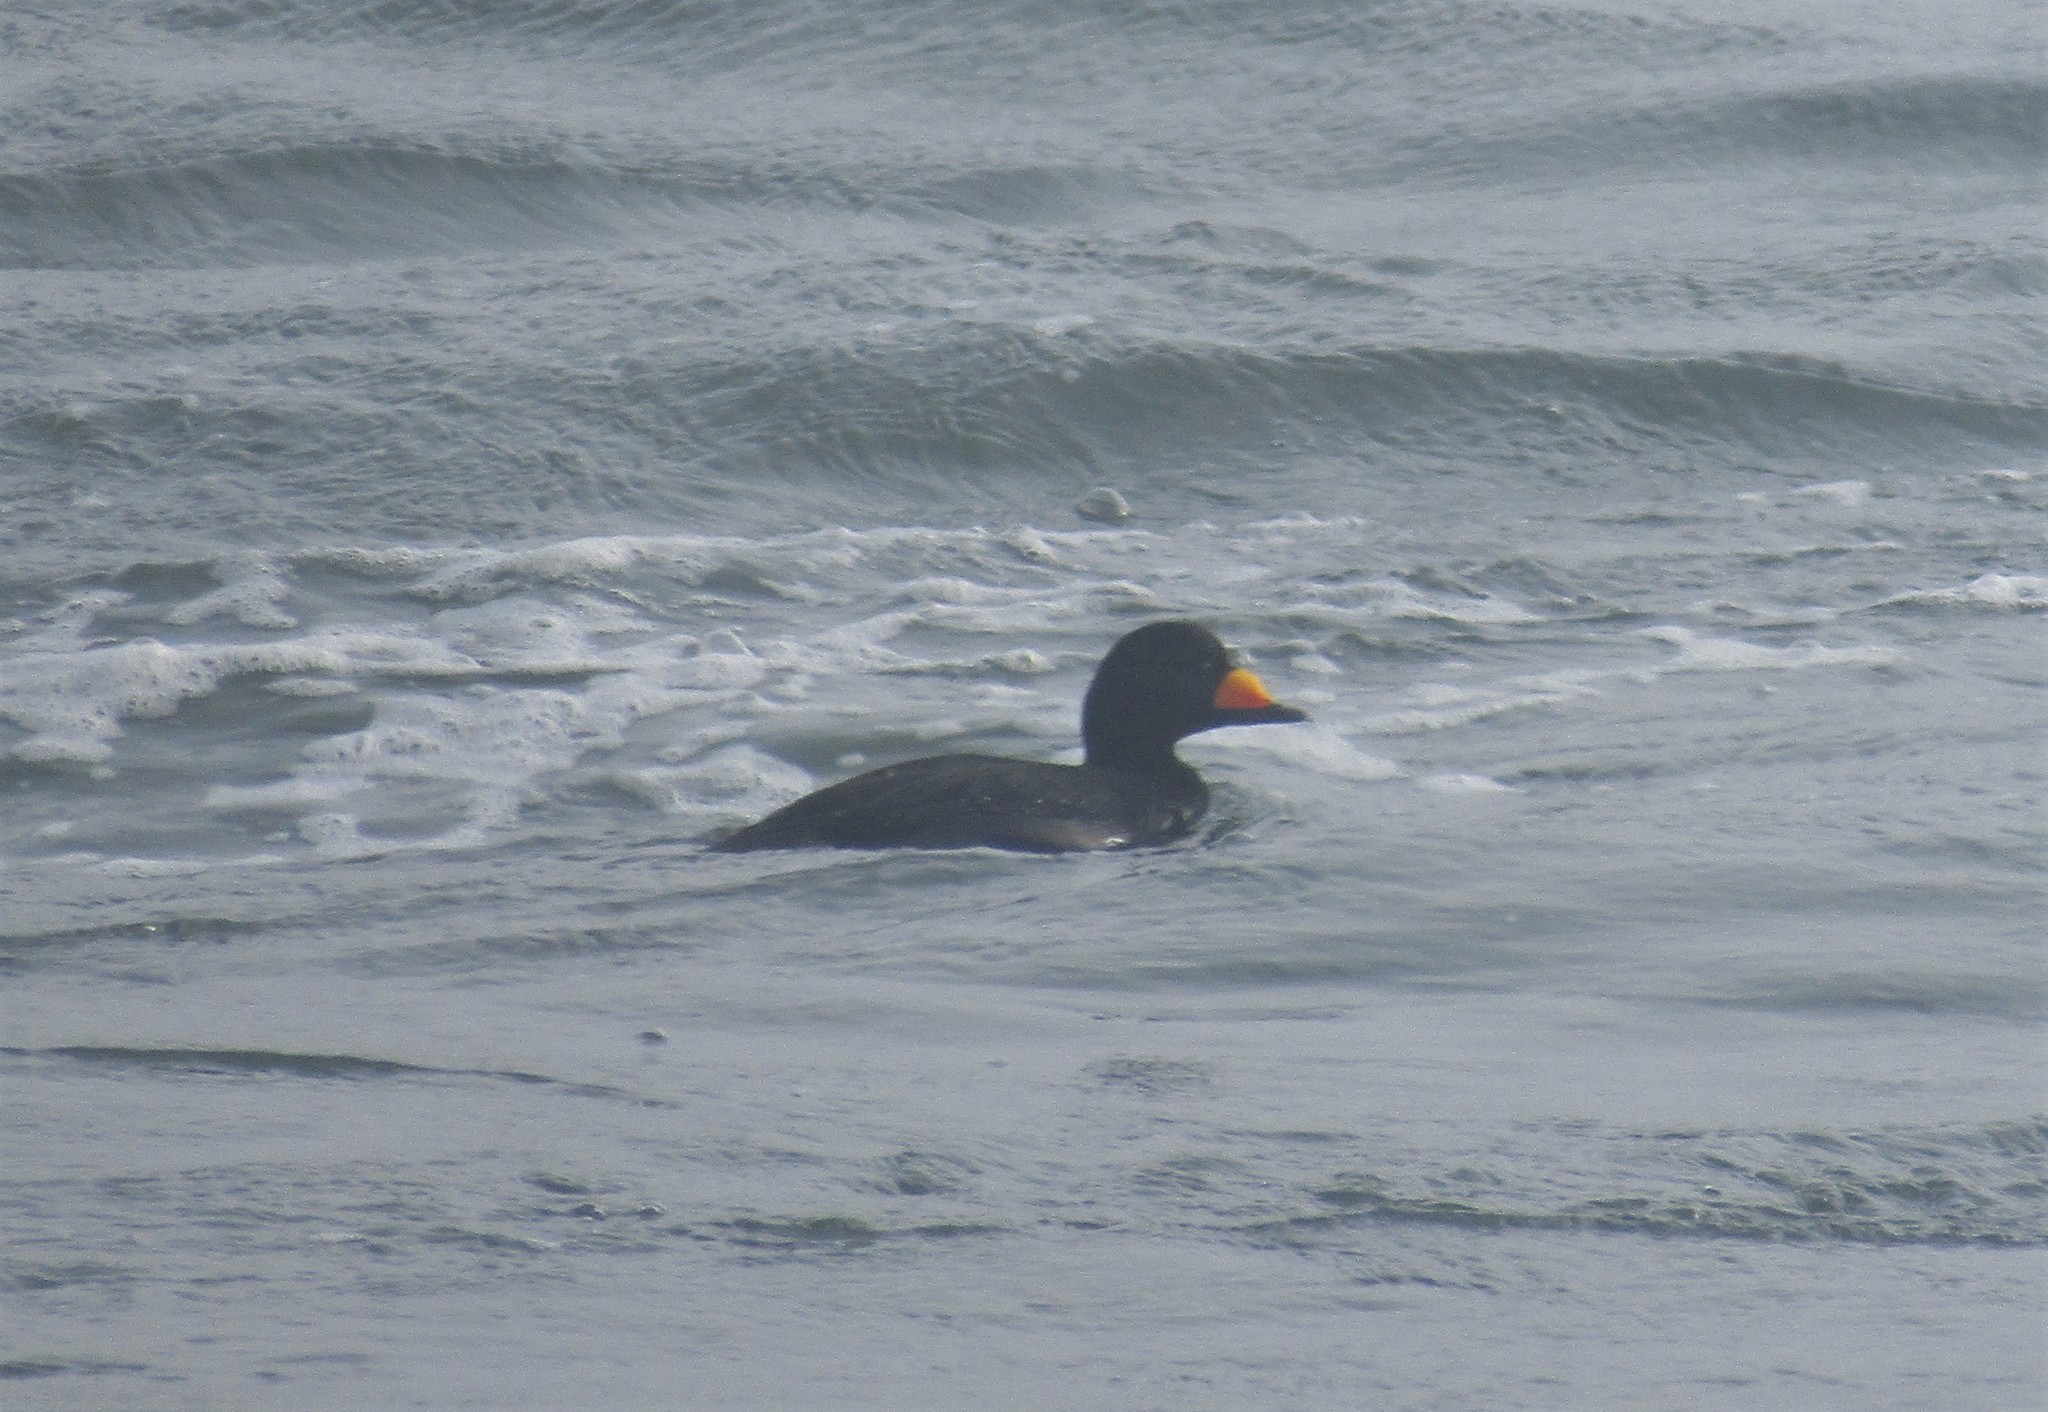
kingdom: Animalia
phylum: Chordata
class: Aves
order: Anseriformes
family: Anatidae
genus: Melanitta
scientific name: Melanitta americana
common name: Black scoter
